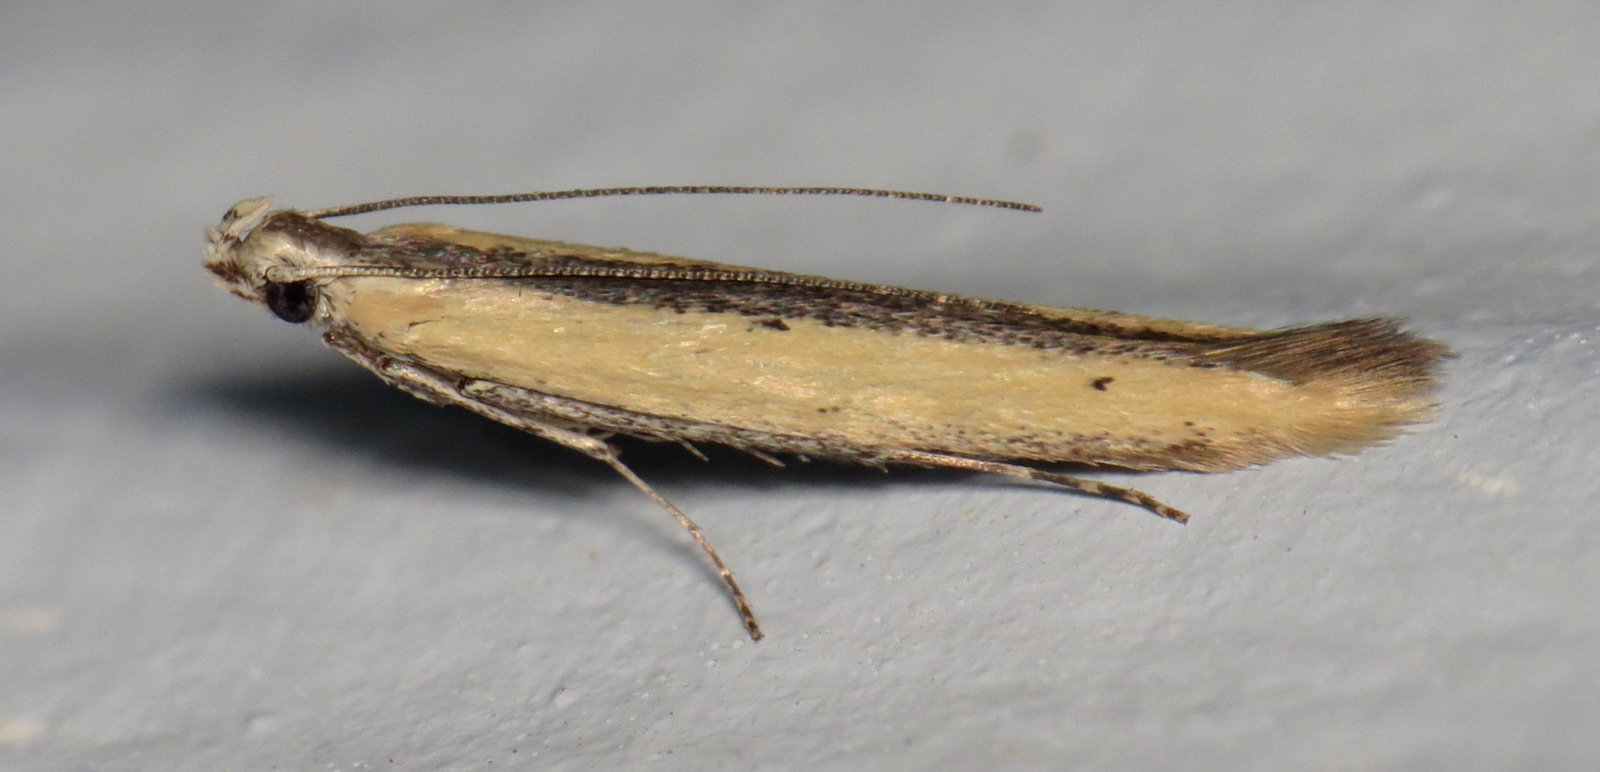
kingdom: Animalia
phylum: Arthropoda
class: Insecta
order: Lepidoptera
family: Batrachedridae
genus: Batrachedra
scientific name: Batrachedra knabi
